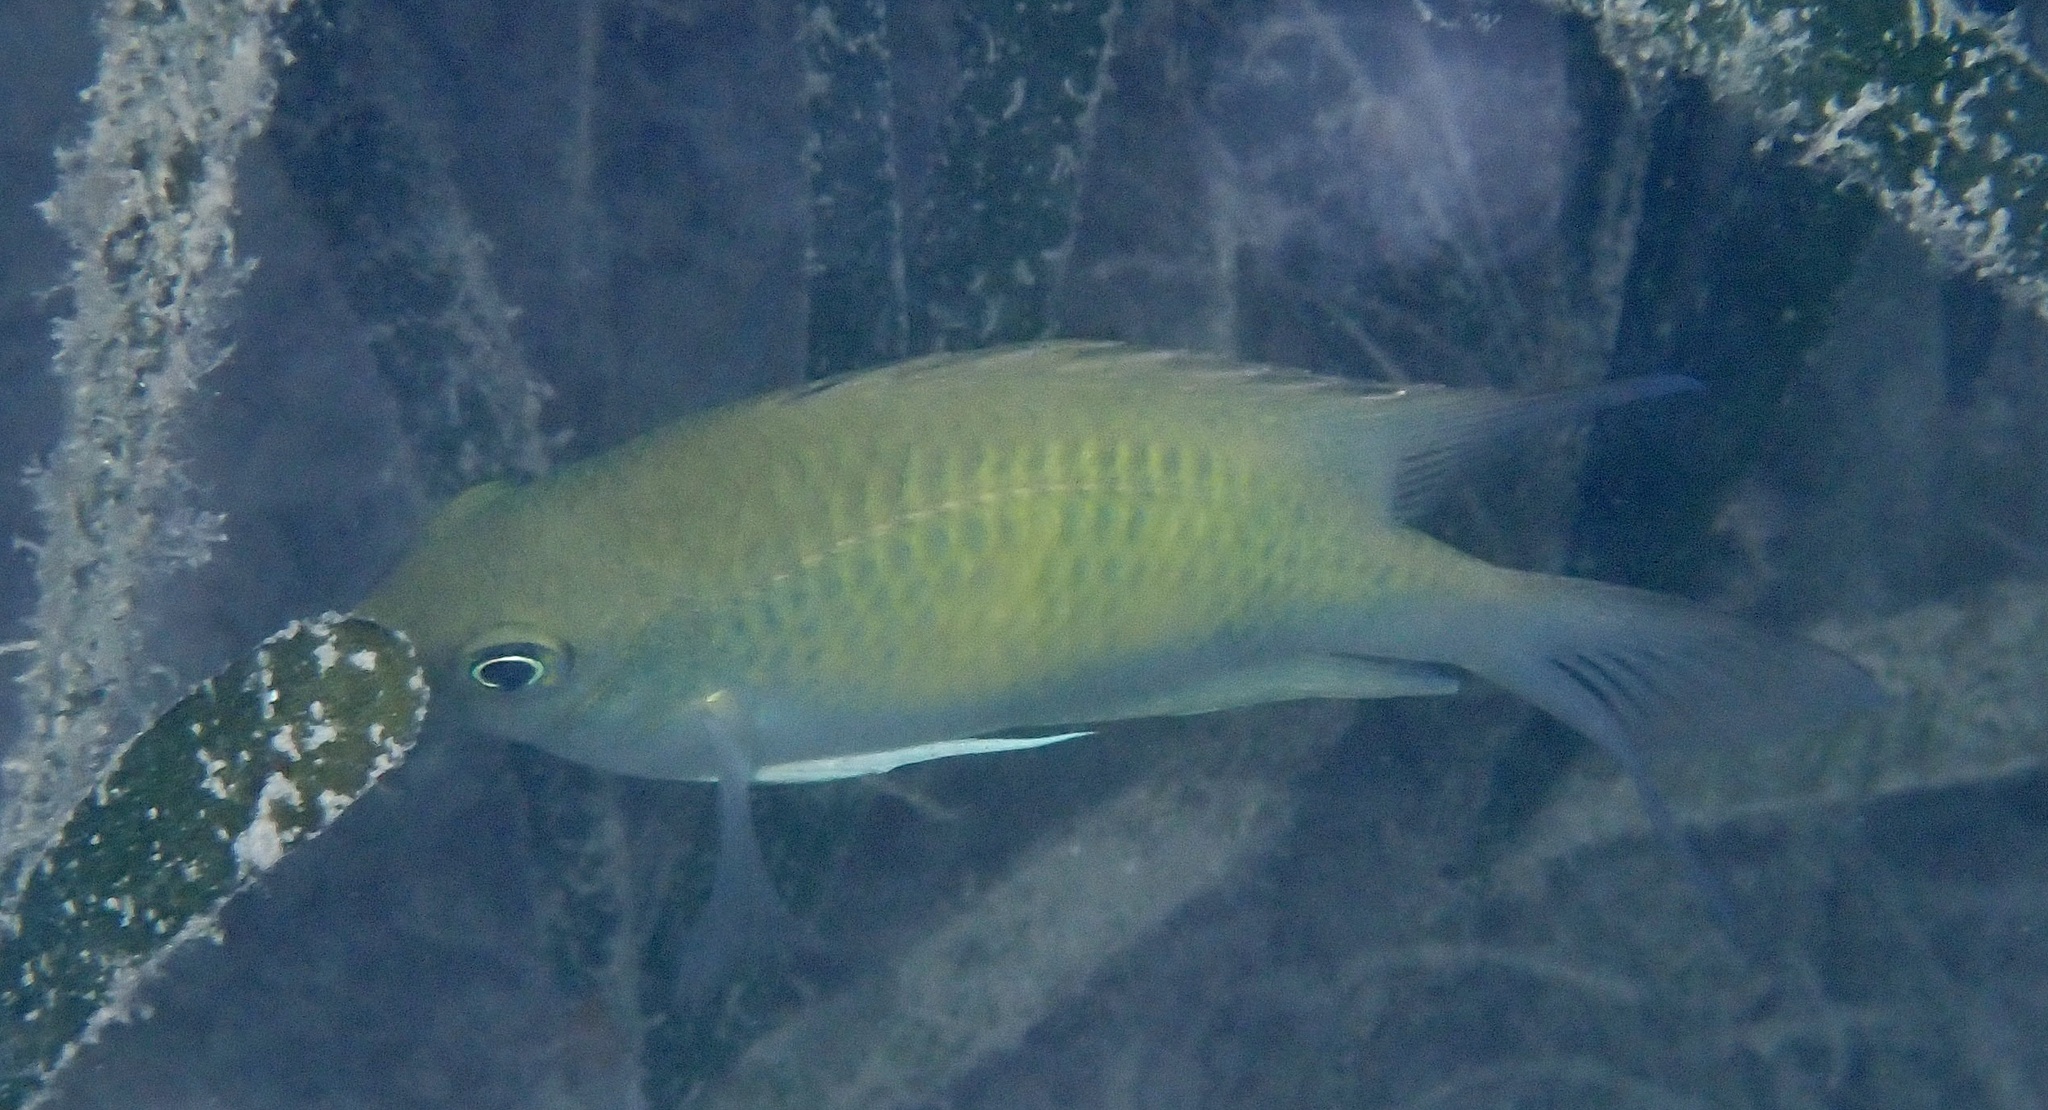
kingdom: Animalia
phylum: Chordata
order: Perciformes
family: Pomacentridae
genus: Amblyglyphidodon
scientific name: Amblyglyphidodon curacao
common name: Staghorn damsel
